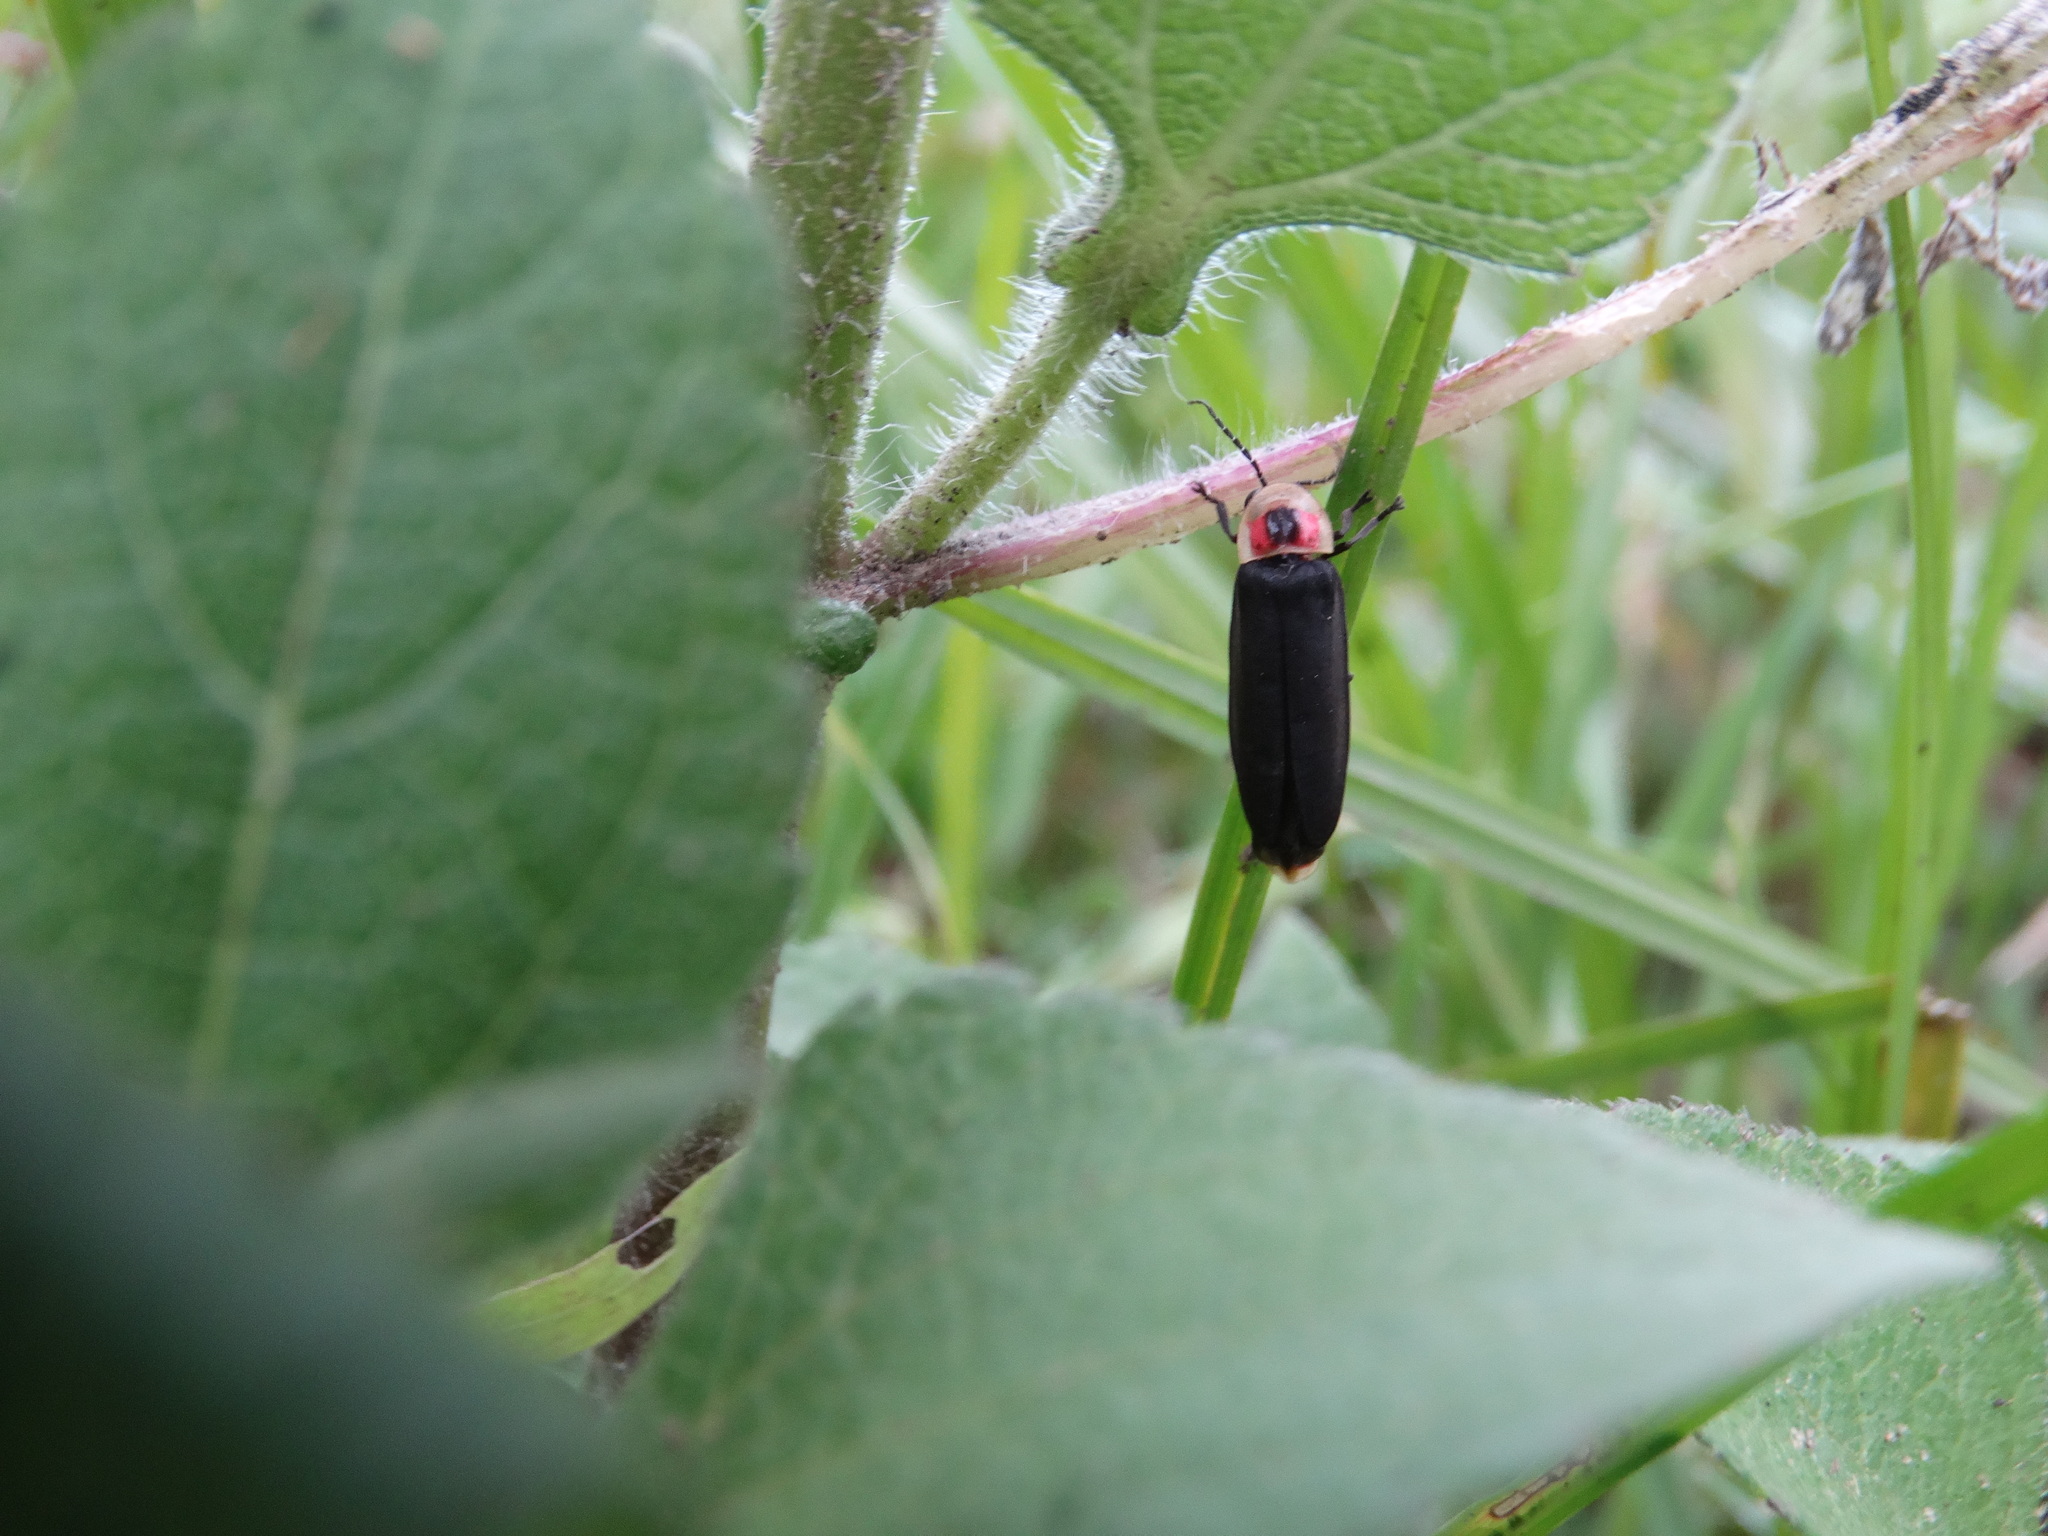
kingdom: Animalia
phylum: Arthropoda
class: Insecta
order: Coleoptera
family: Lampyridae
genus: Photinus
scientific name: Photinus extensus
